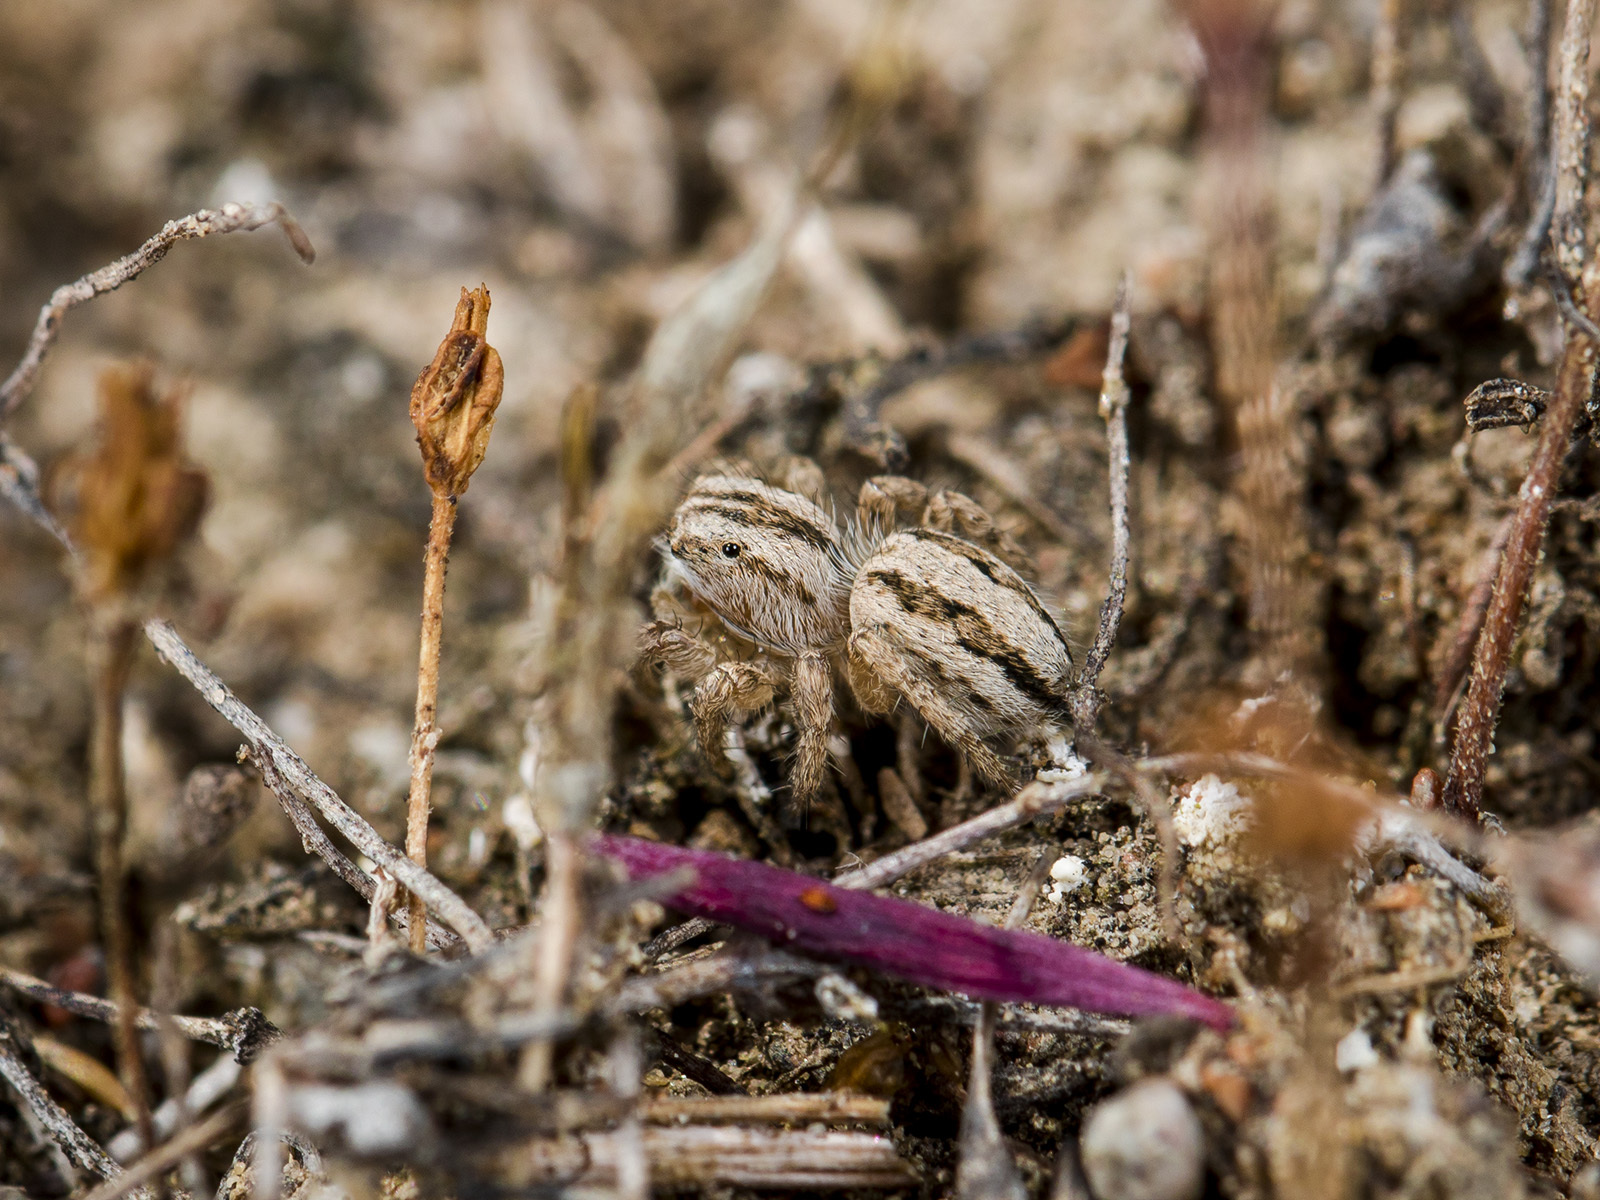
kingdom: Animalia
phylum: Arthropoda
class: Arachnida
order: Araneae
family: Salticidae
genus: Aelurillus
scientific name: Aelurillus m-nigrum
